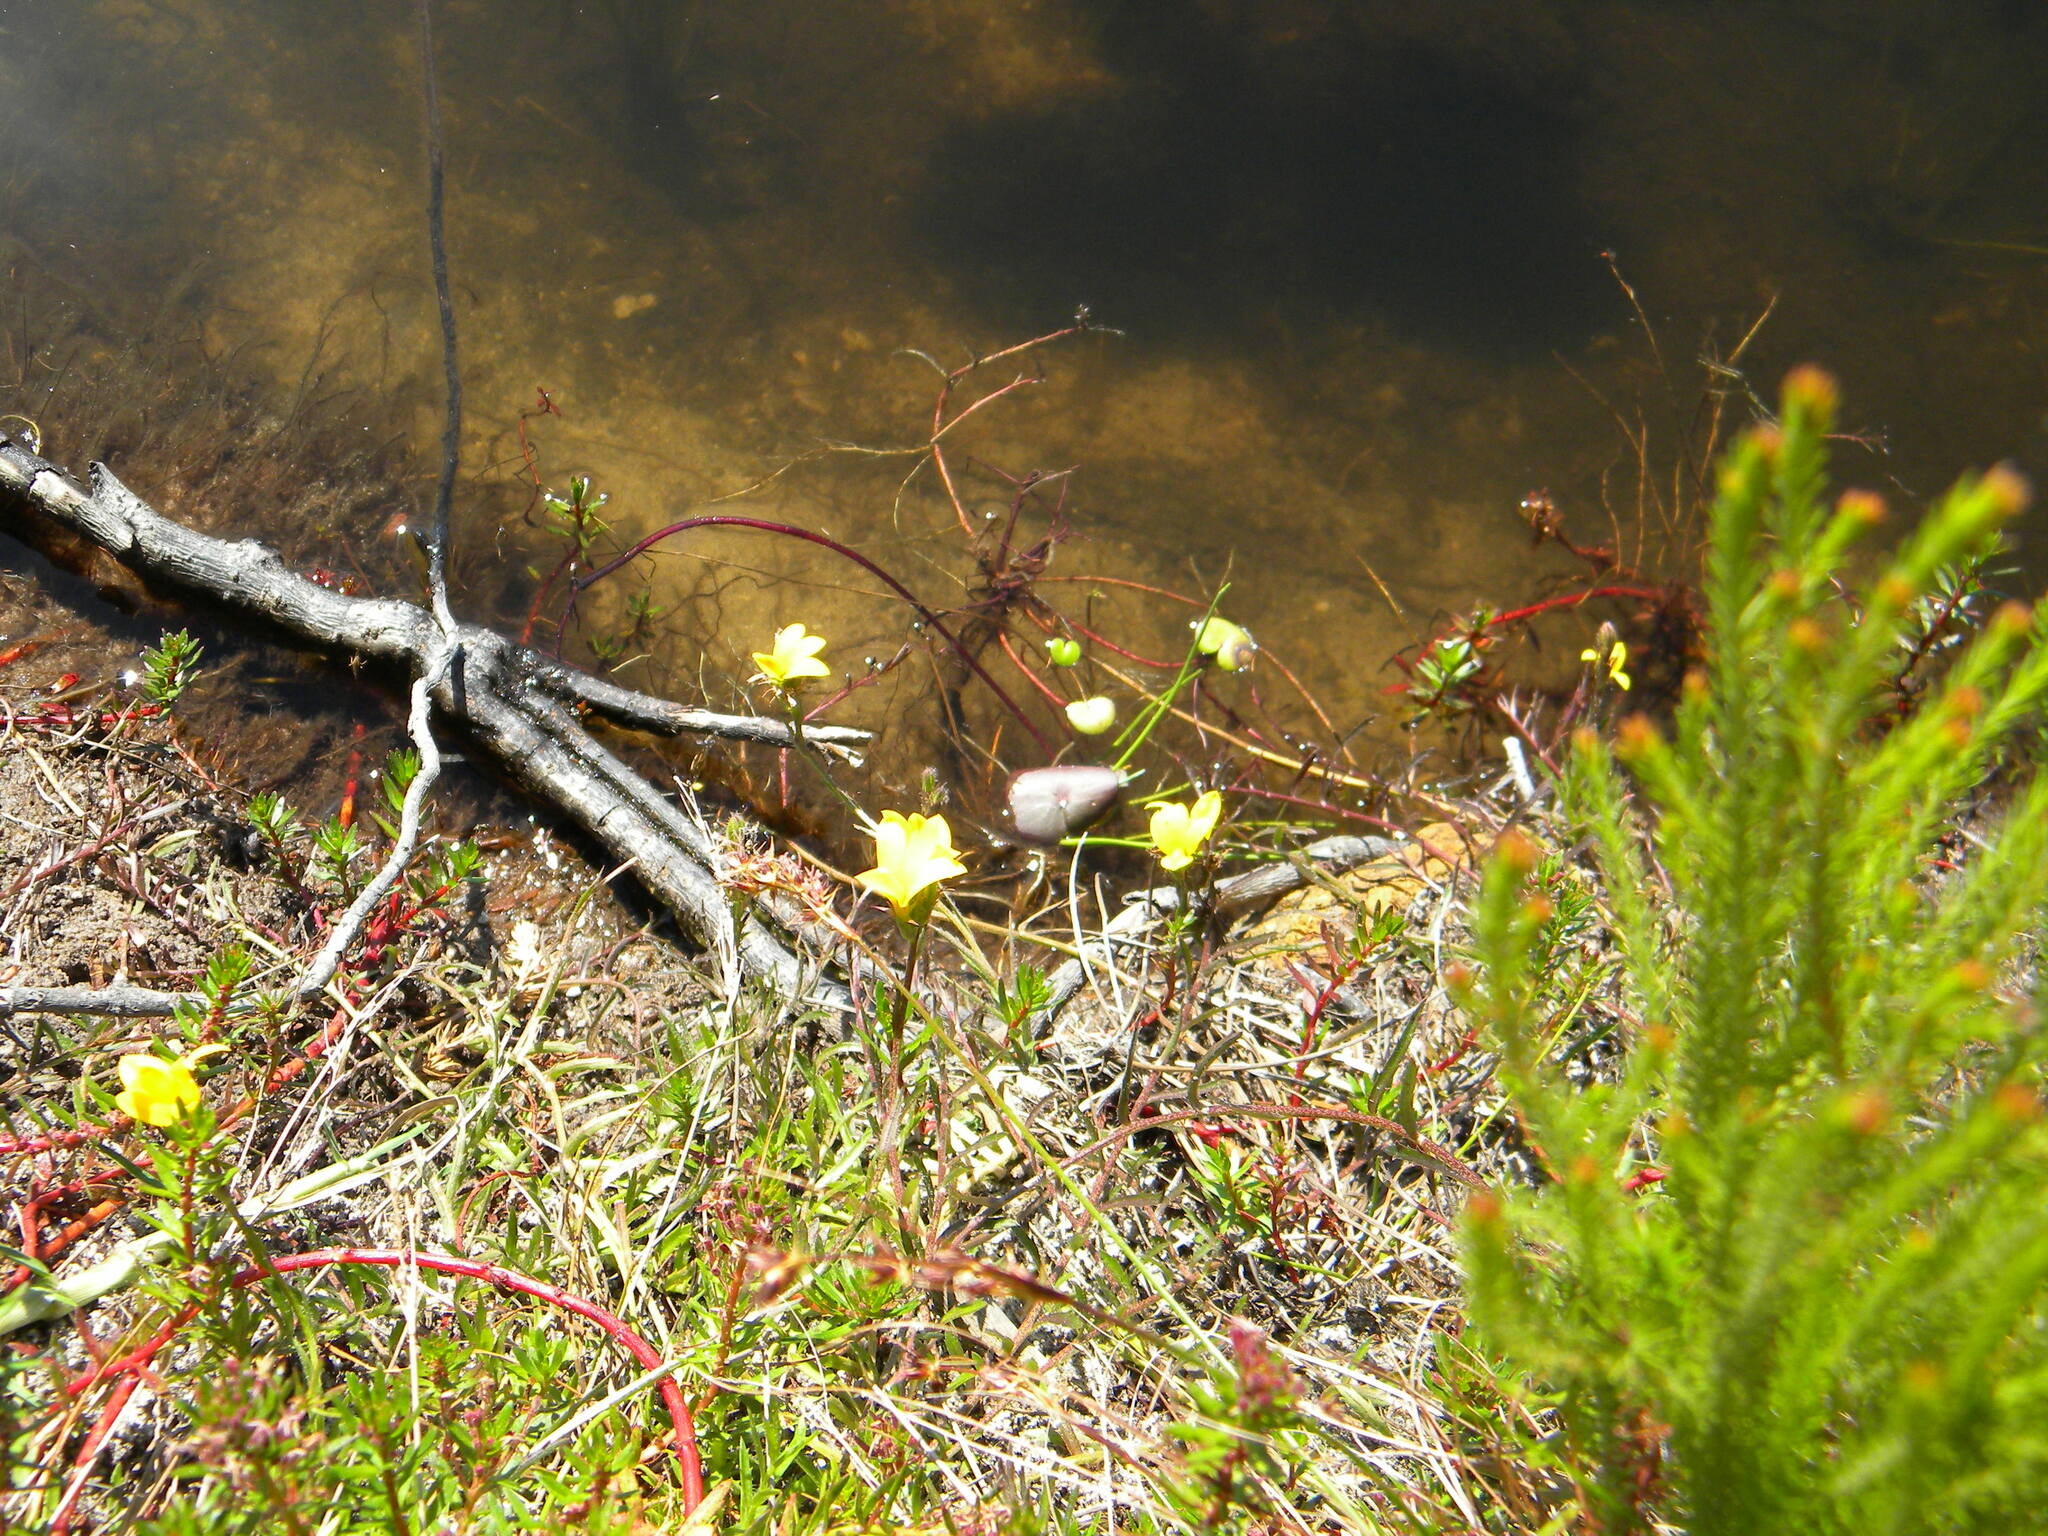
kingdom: Plantae
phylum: Tracheophyta
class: Magnoliopsida
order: Asterales
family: Campanulaceae
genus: Monopsis
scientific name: Monopsis lutea
